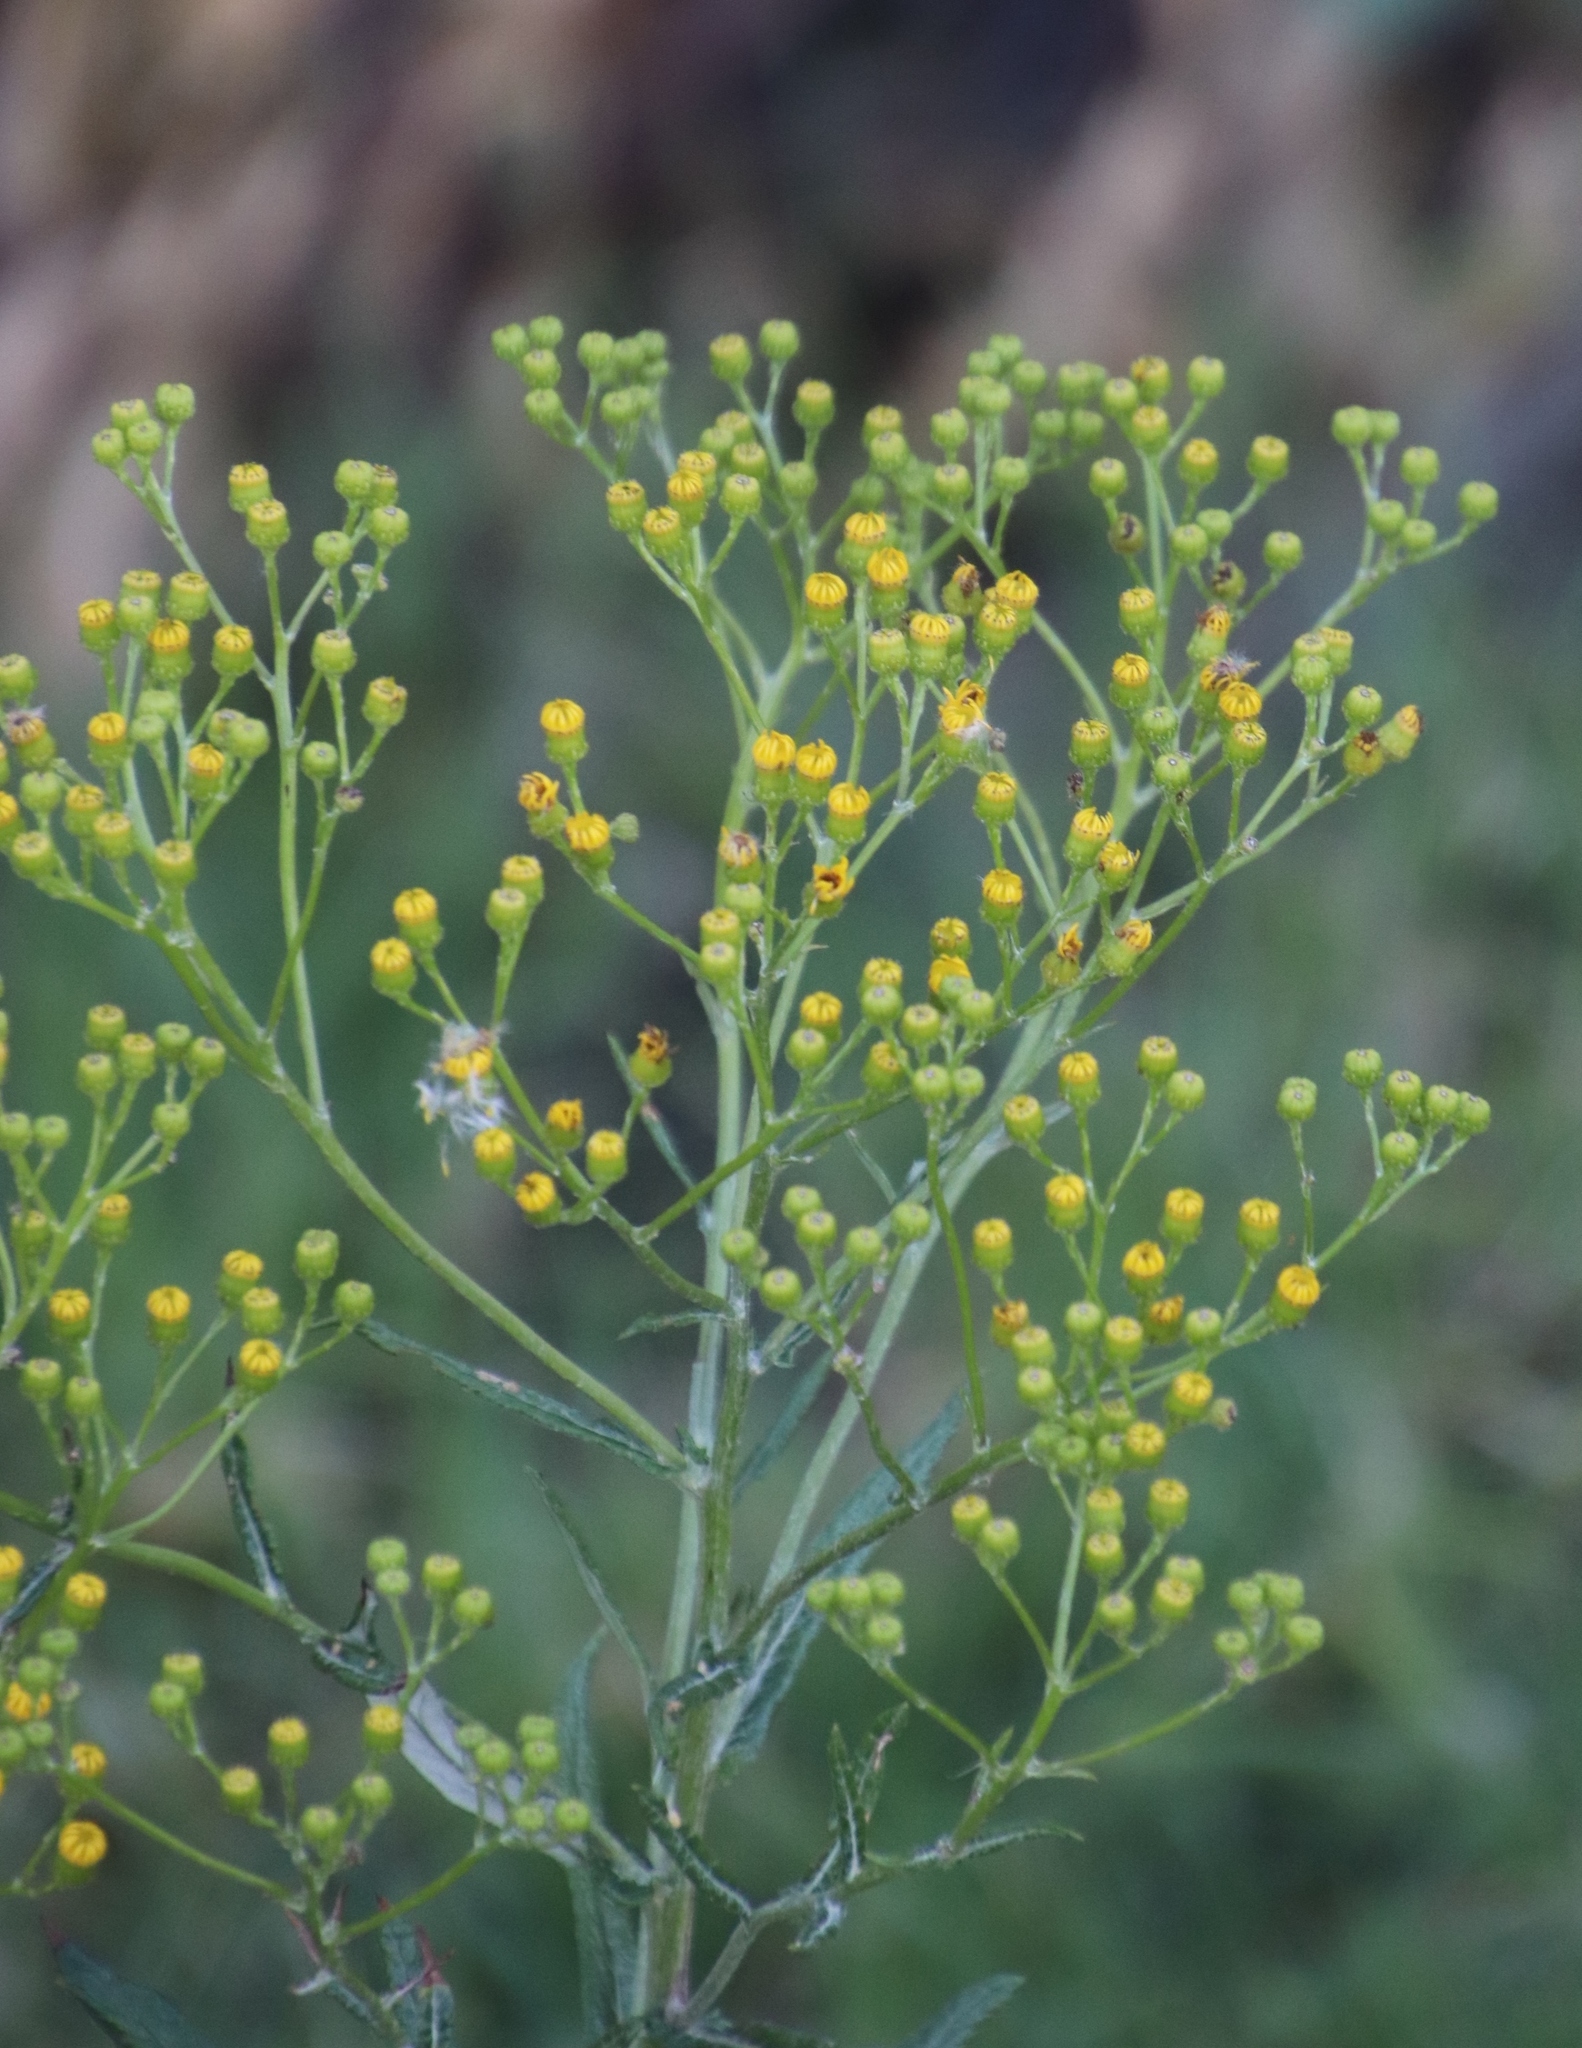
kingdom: Plantae
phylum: Tracheophyta
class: Magnoliopsida
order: Asterales
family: Asteraceae
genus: Senecio
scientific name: Senecio pterophorus
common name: Shoddy ragwort
